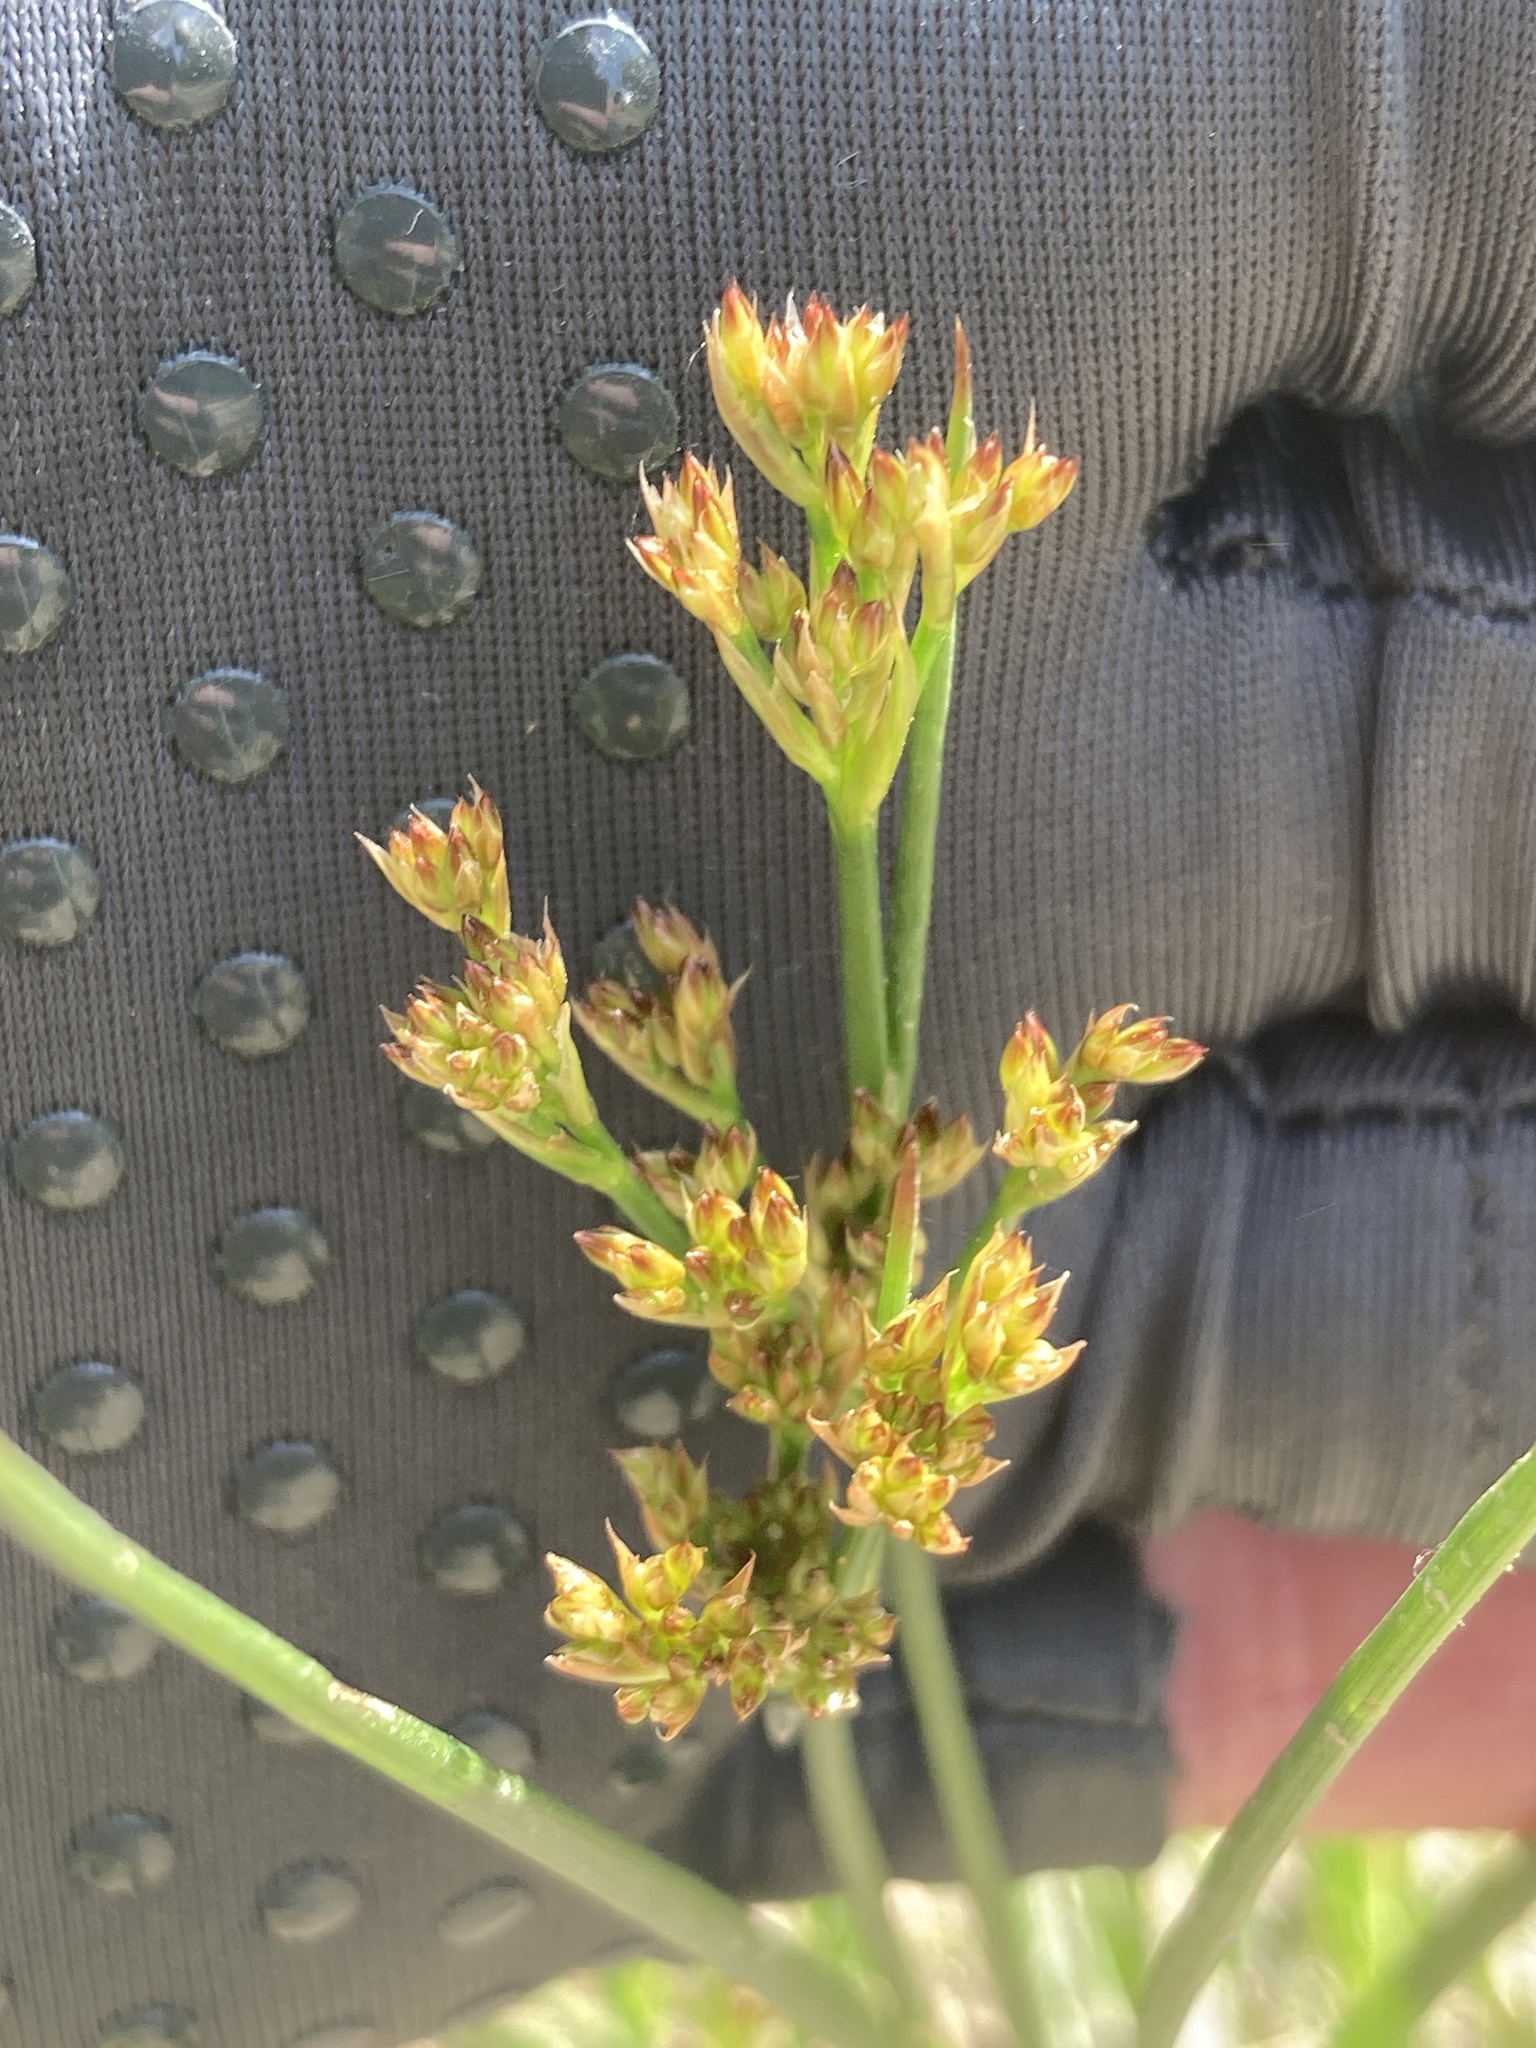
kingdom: Plantae
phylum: Tracheophyta
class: Liliopsida
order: Poales
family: Juncaceae
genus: Juncus
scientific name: Juncus articulatus
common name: Jointed rush
